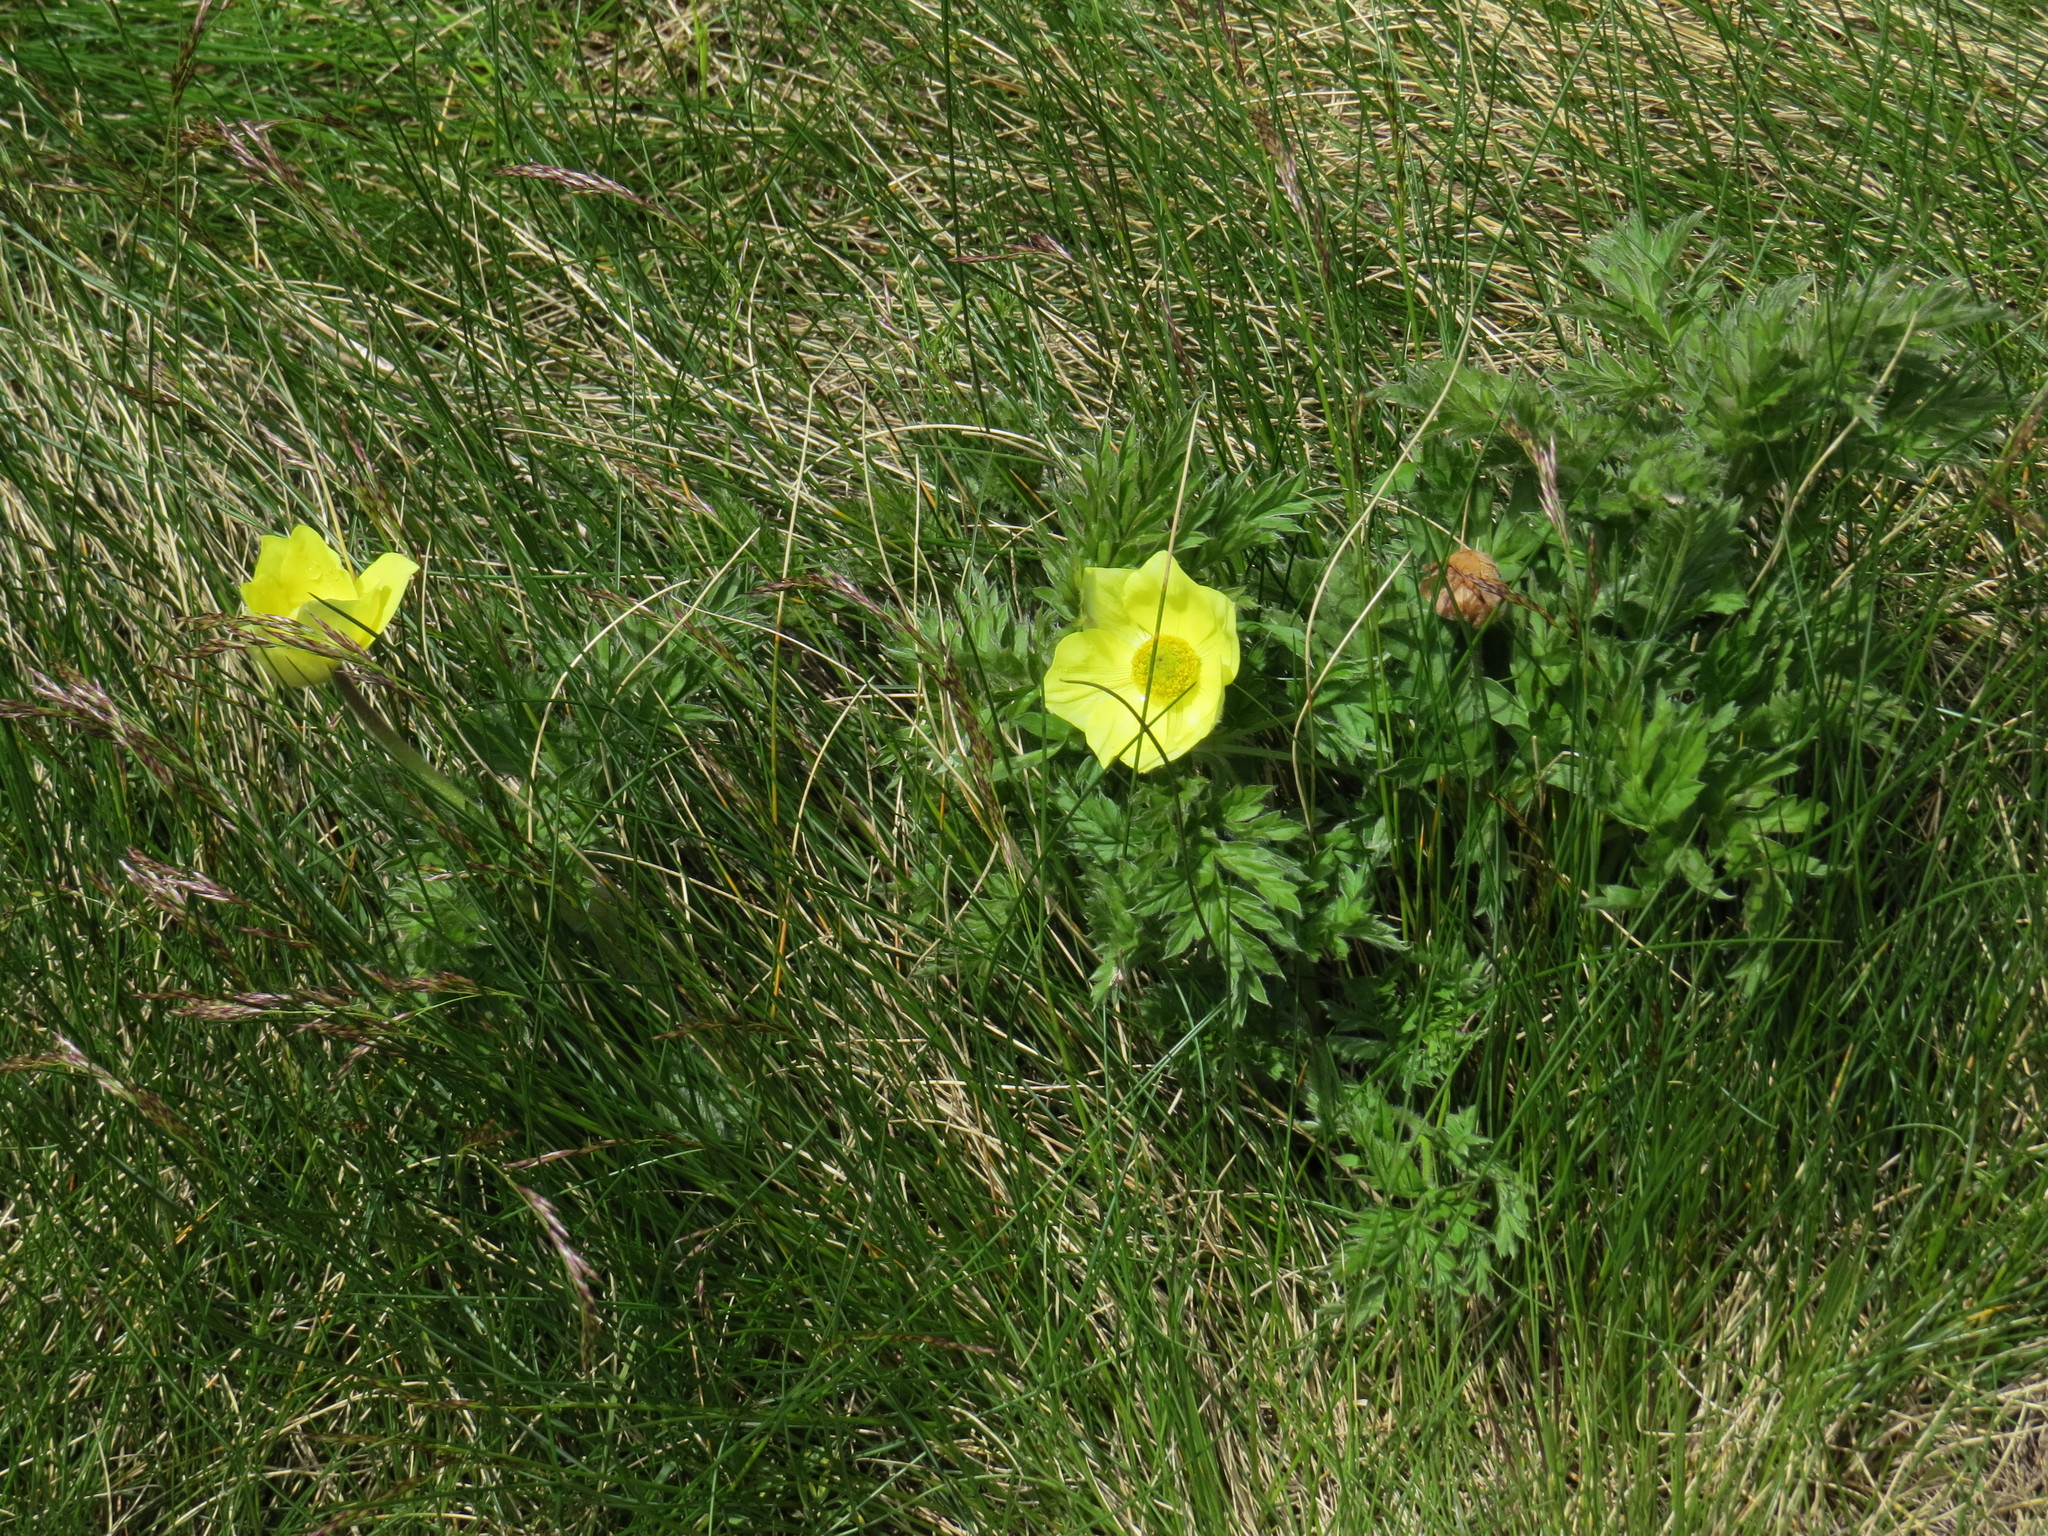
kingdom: Plantae
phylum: Tracheophyta
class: Magnoliopsida
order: Ranunculales
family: Ranunculaceae
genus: Pulsatilla
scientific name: Pulsatilla alpina
